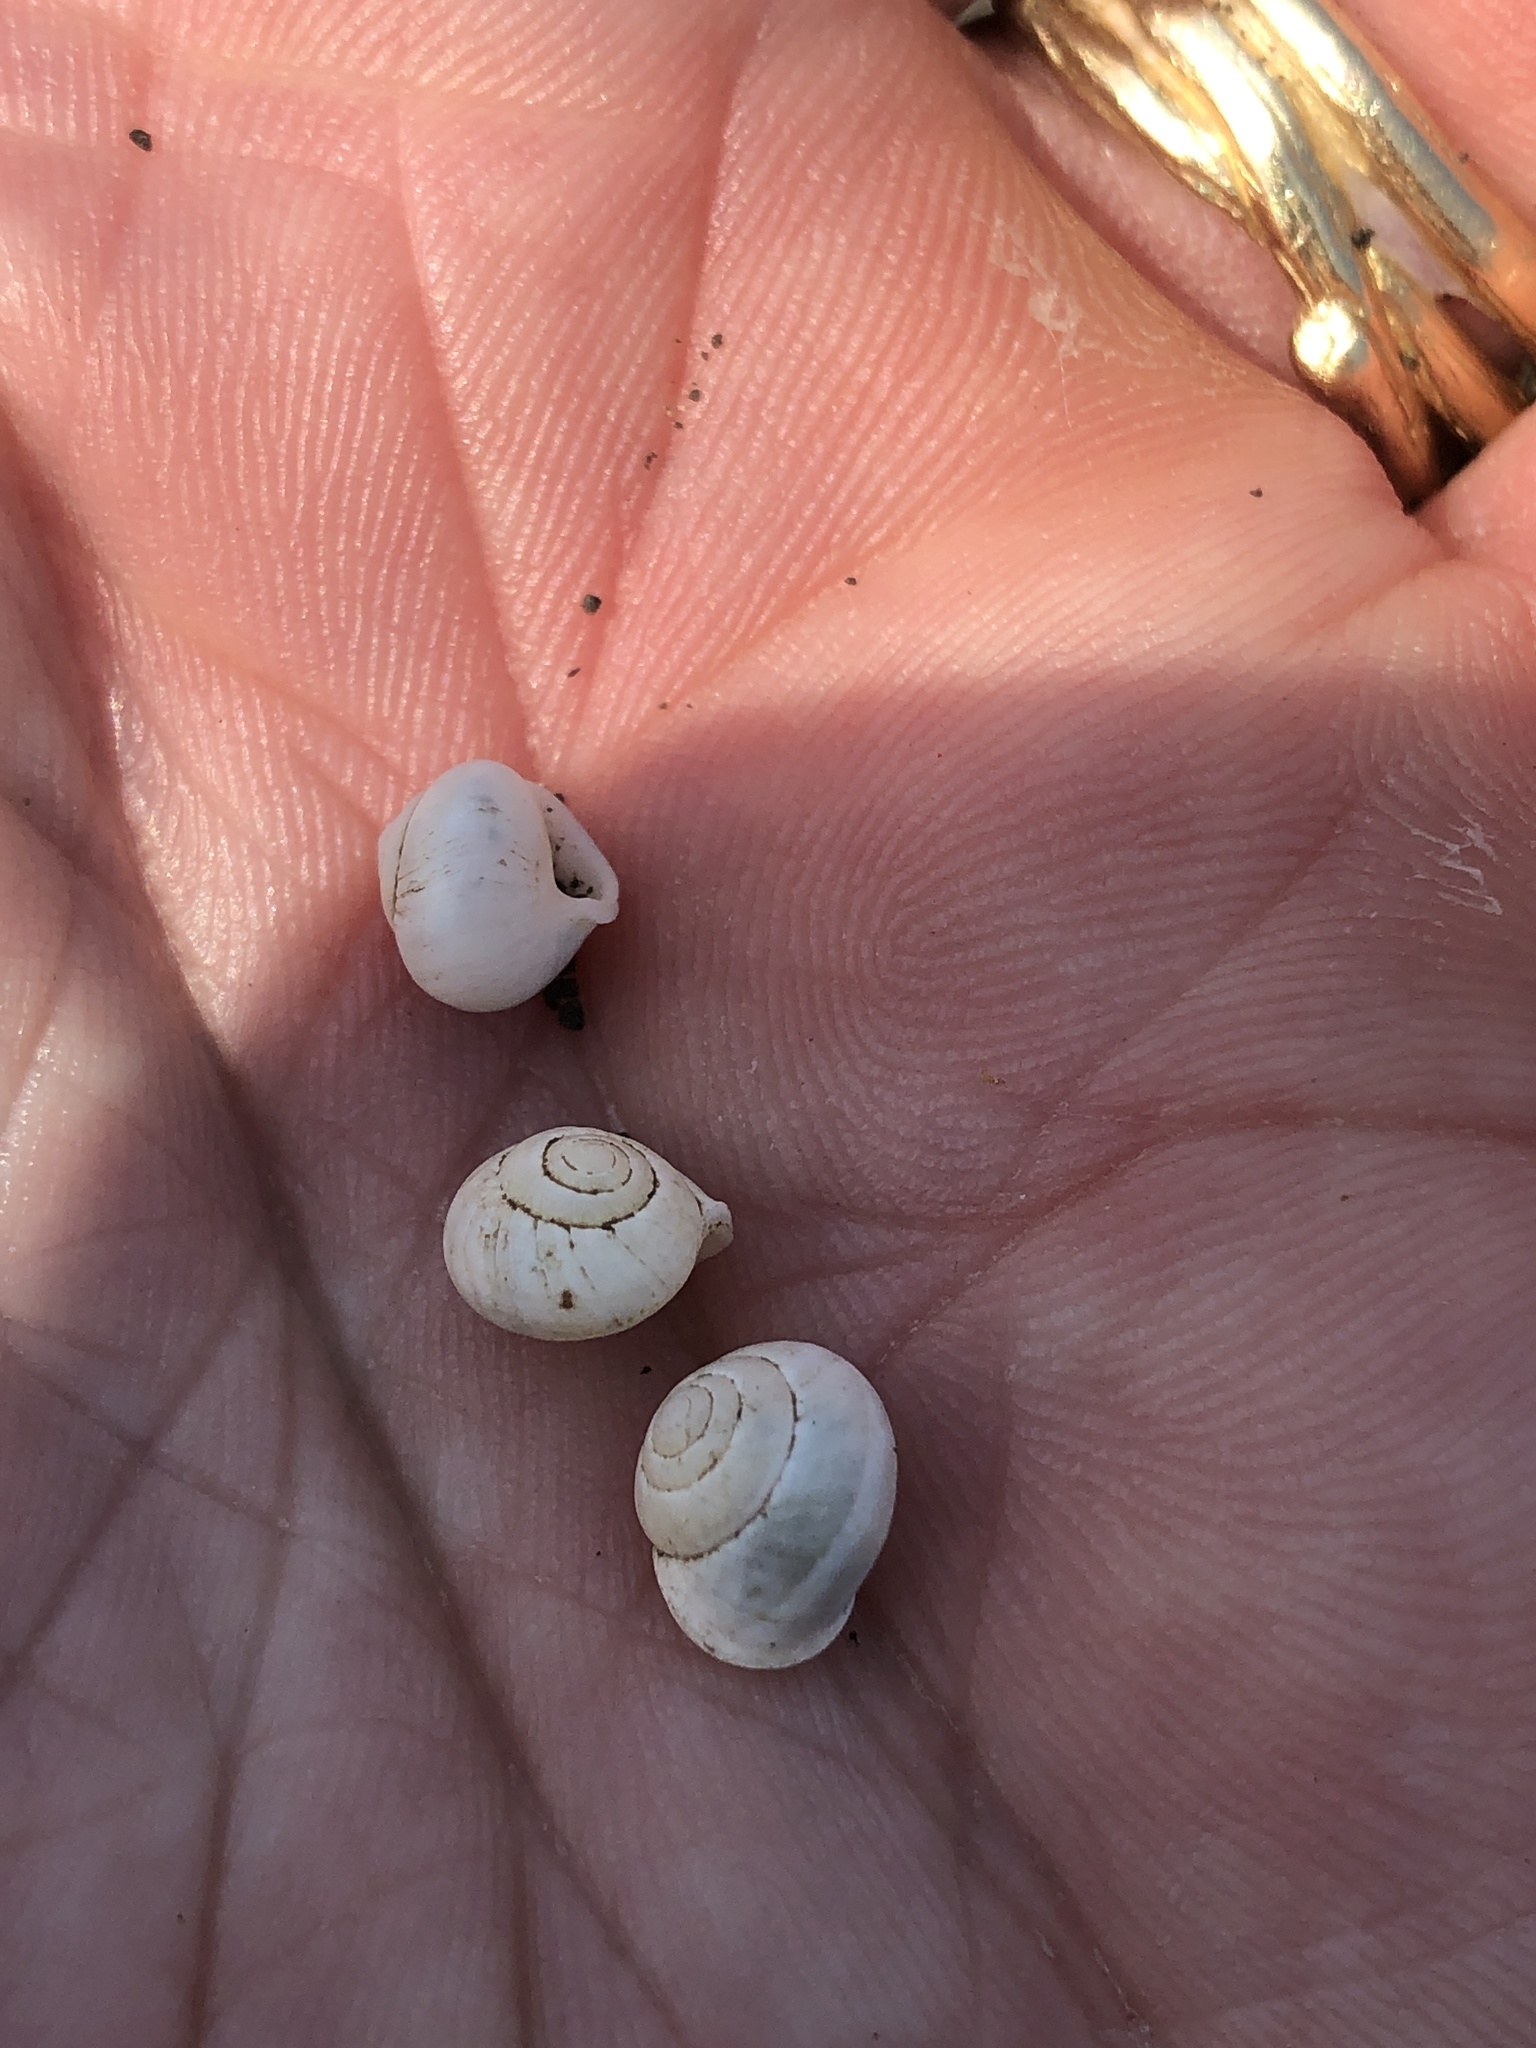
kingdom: Animalia
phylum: Mollusca
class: Gastropoda
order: Cycloneritida
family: Helicinidae
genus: Helicina
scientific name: Helicina orbiculata
